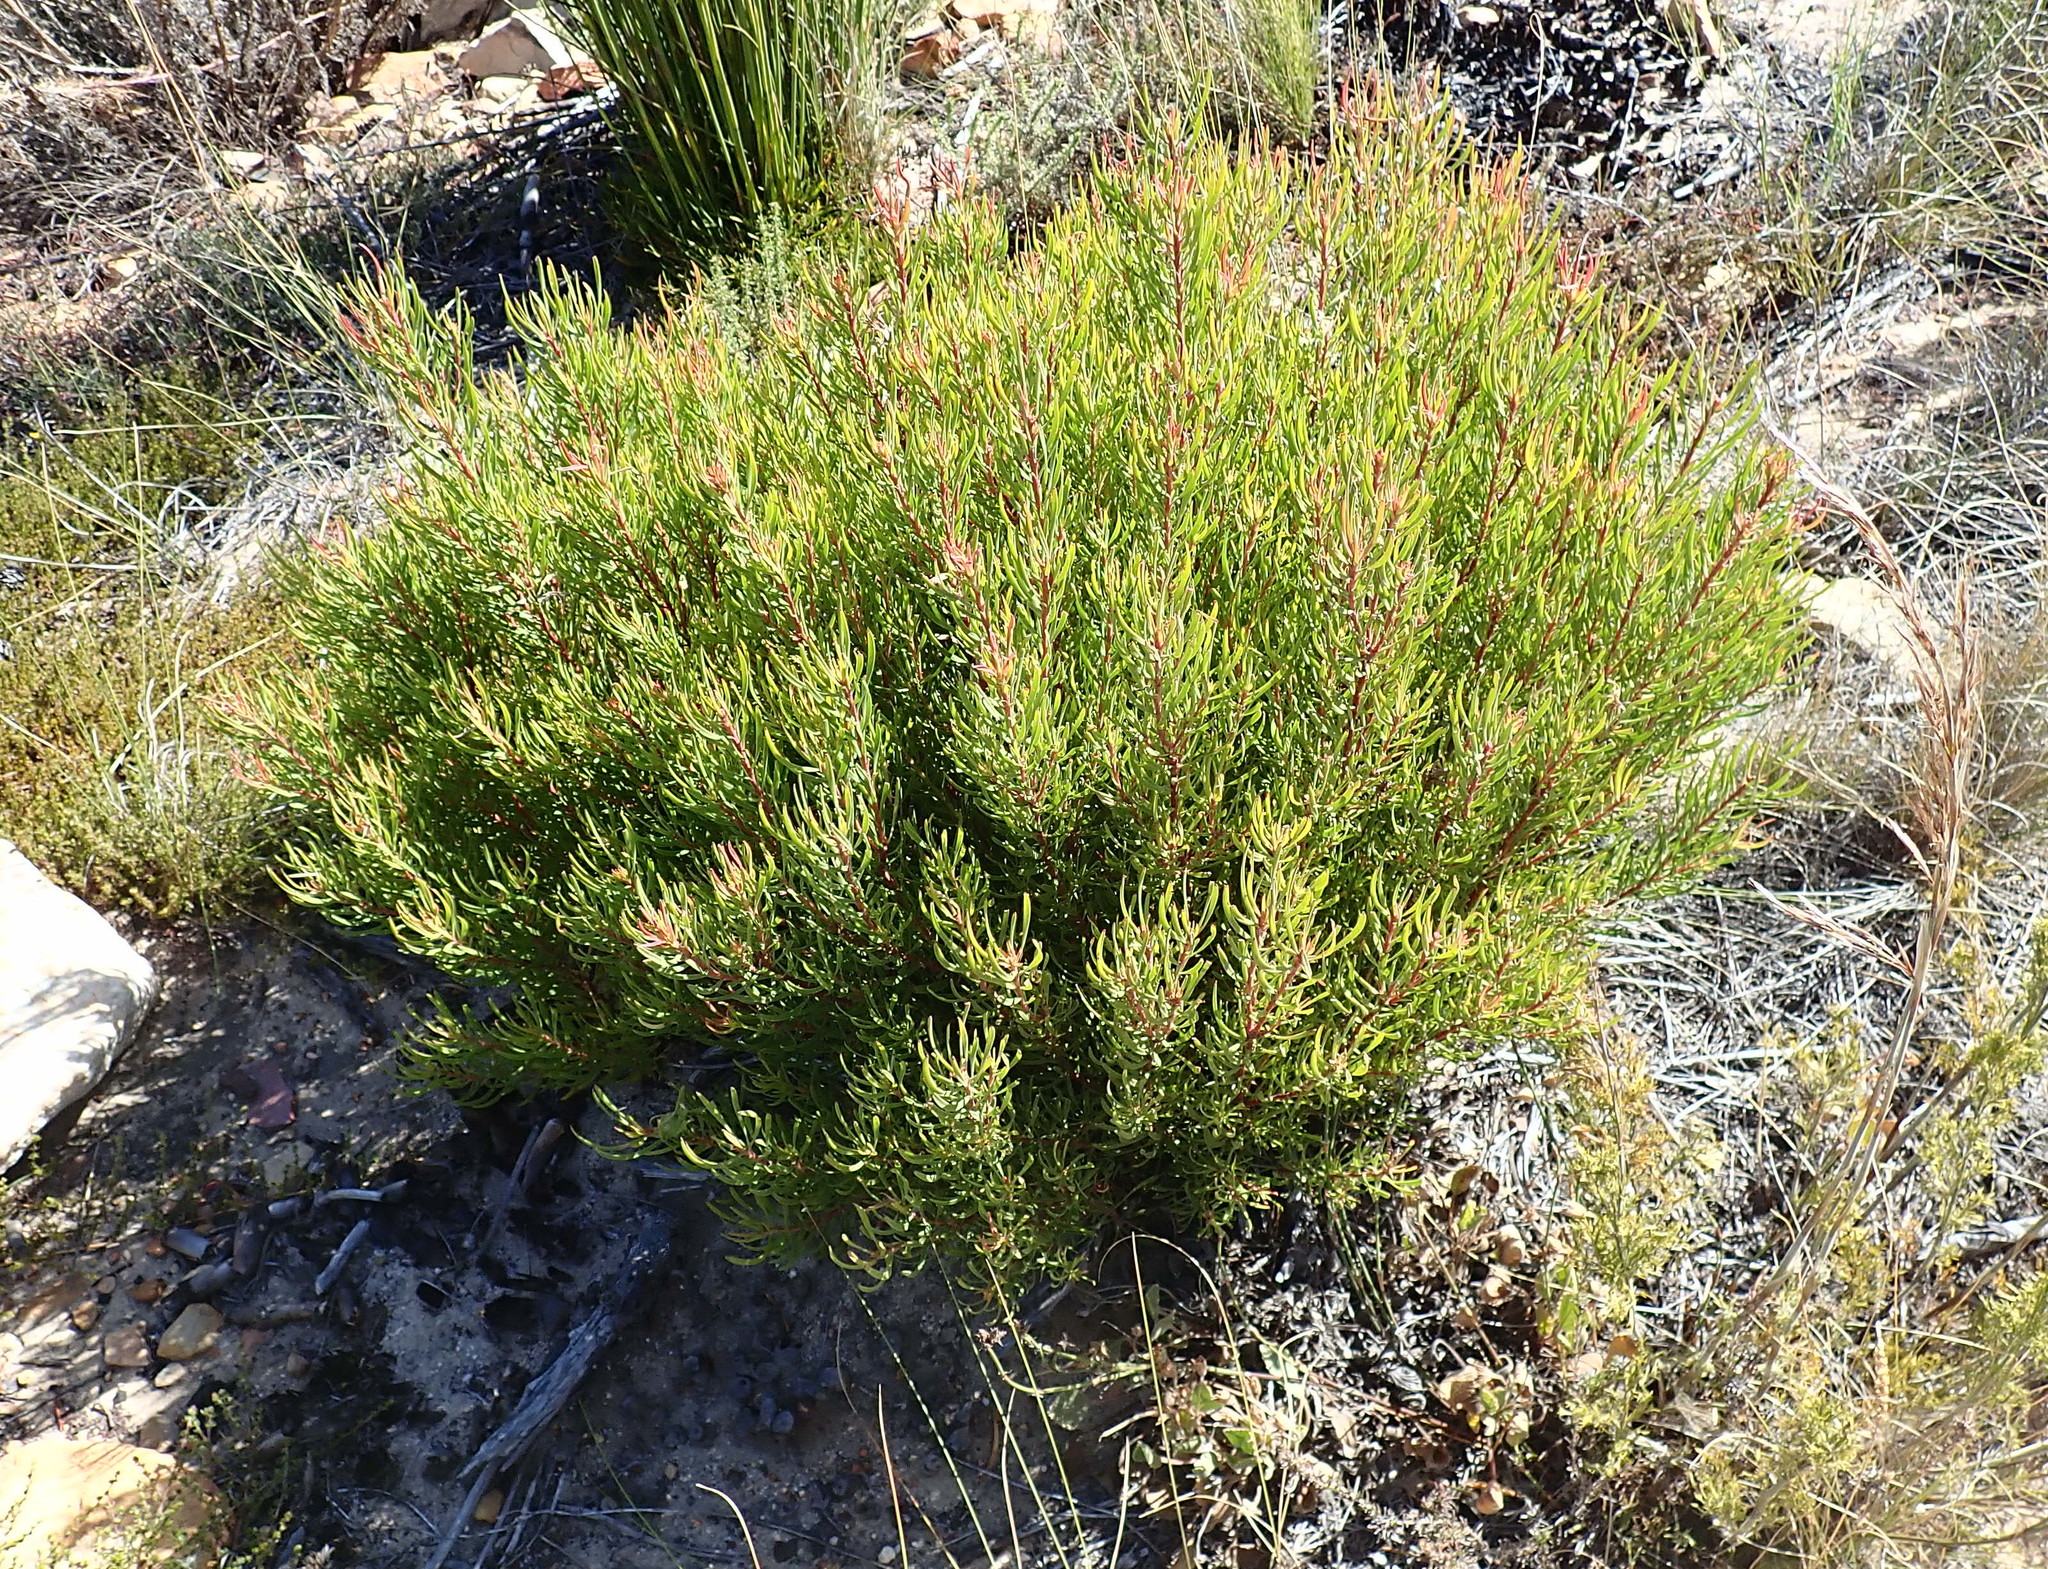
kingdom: Plantae
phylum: Tracheophyta
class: Magnoliopsida
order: Proteales
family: Proteaceae
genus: Leucadendron
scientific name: Leucadendron spissifolium
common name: Spear-leaf conebush
